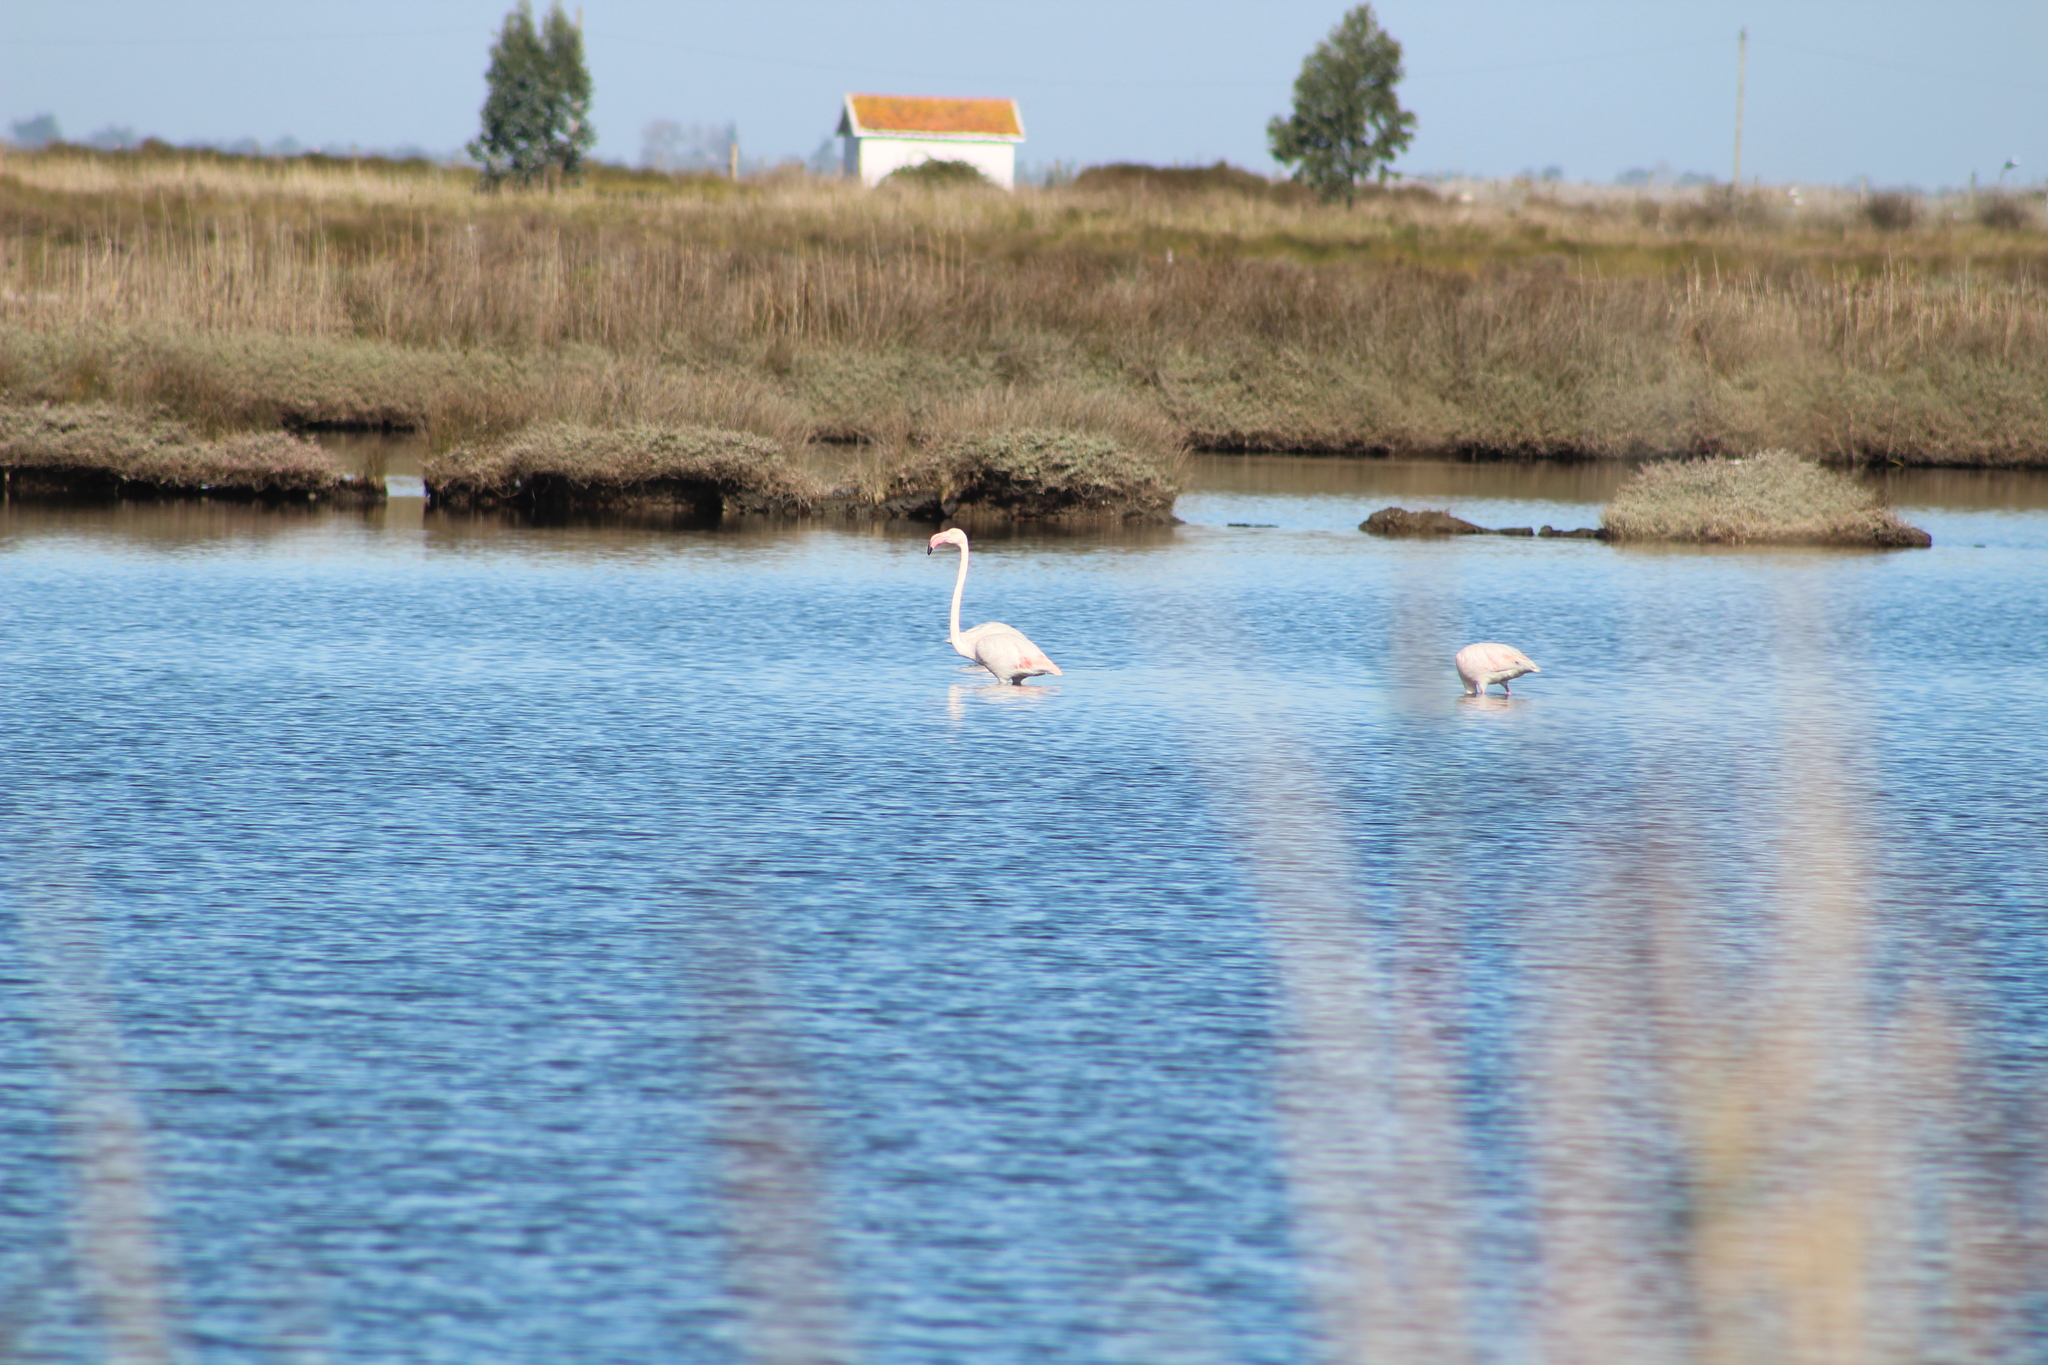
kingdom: Animalia
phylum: Chordata
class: Aves
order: Phoenicopteriformes
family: Phoenicopteridae
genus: Phoenicopterus
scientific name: Phoenicopterus roseus
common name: Greater flamingo
